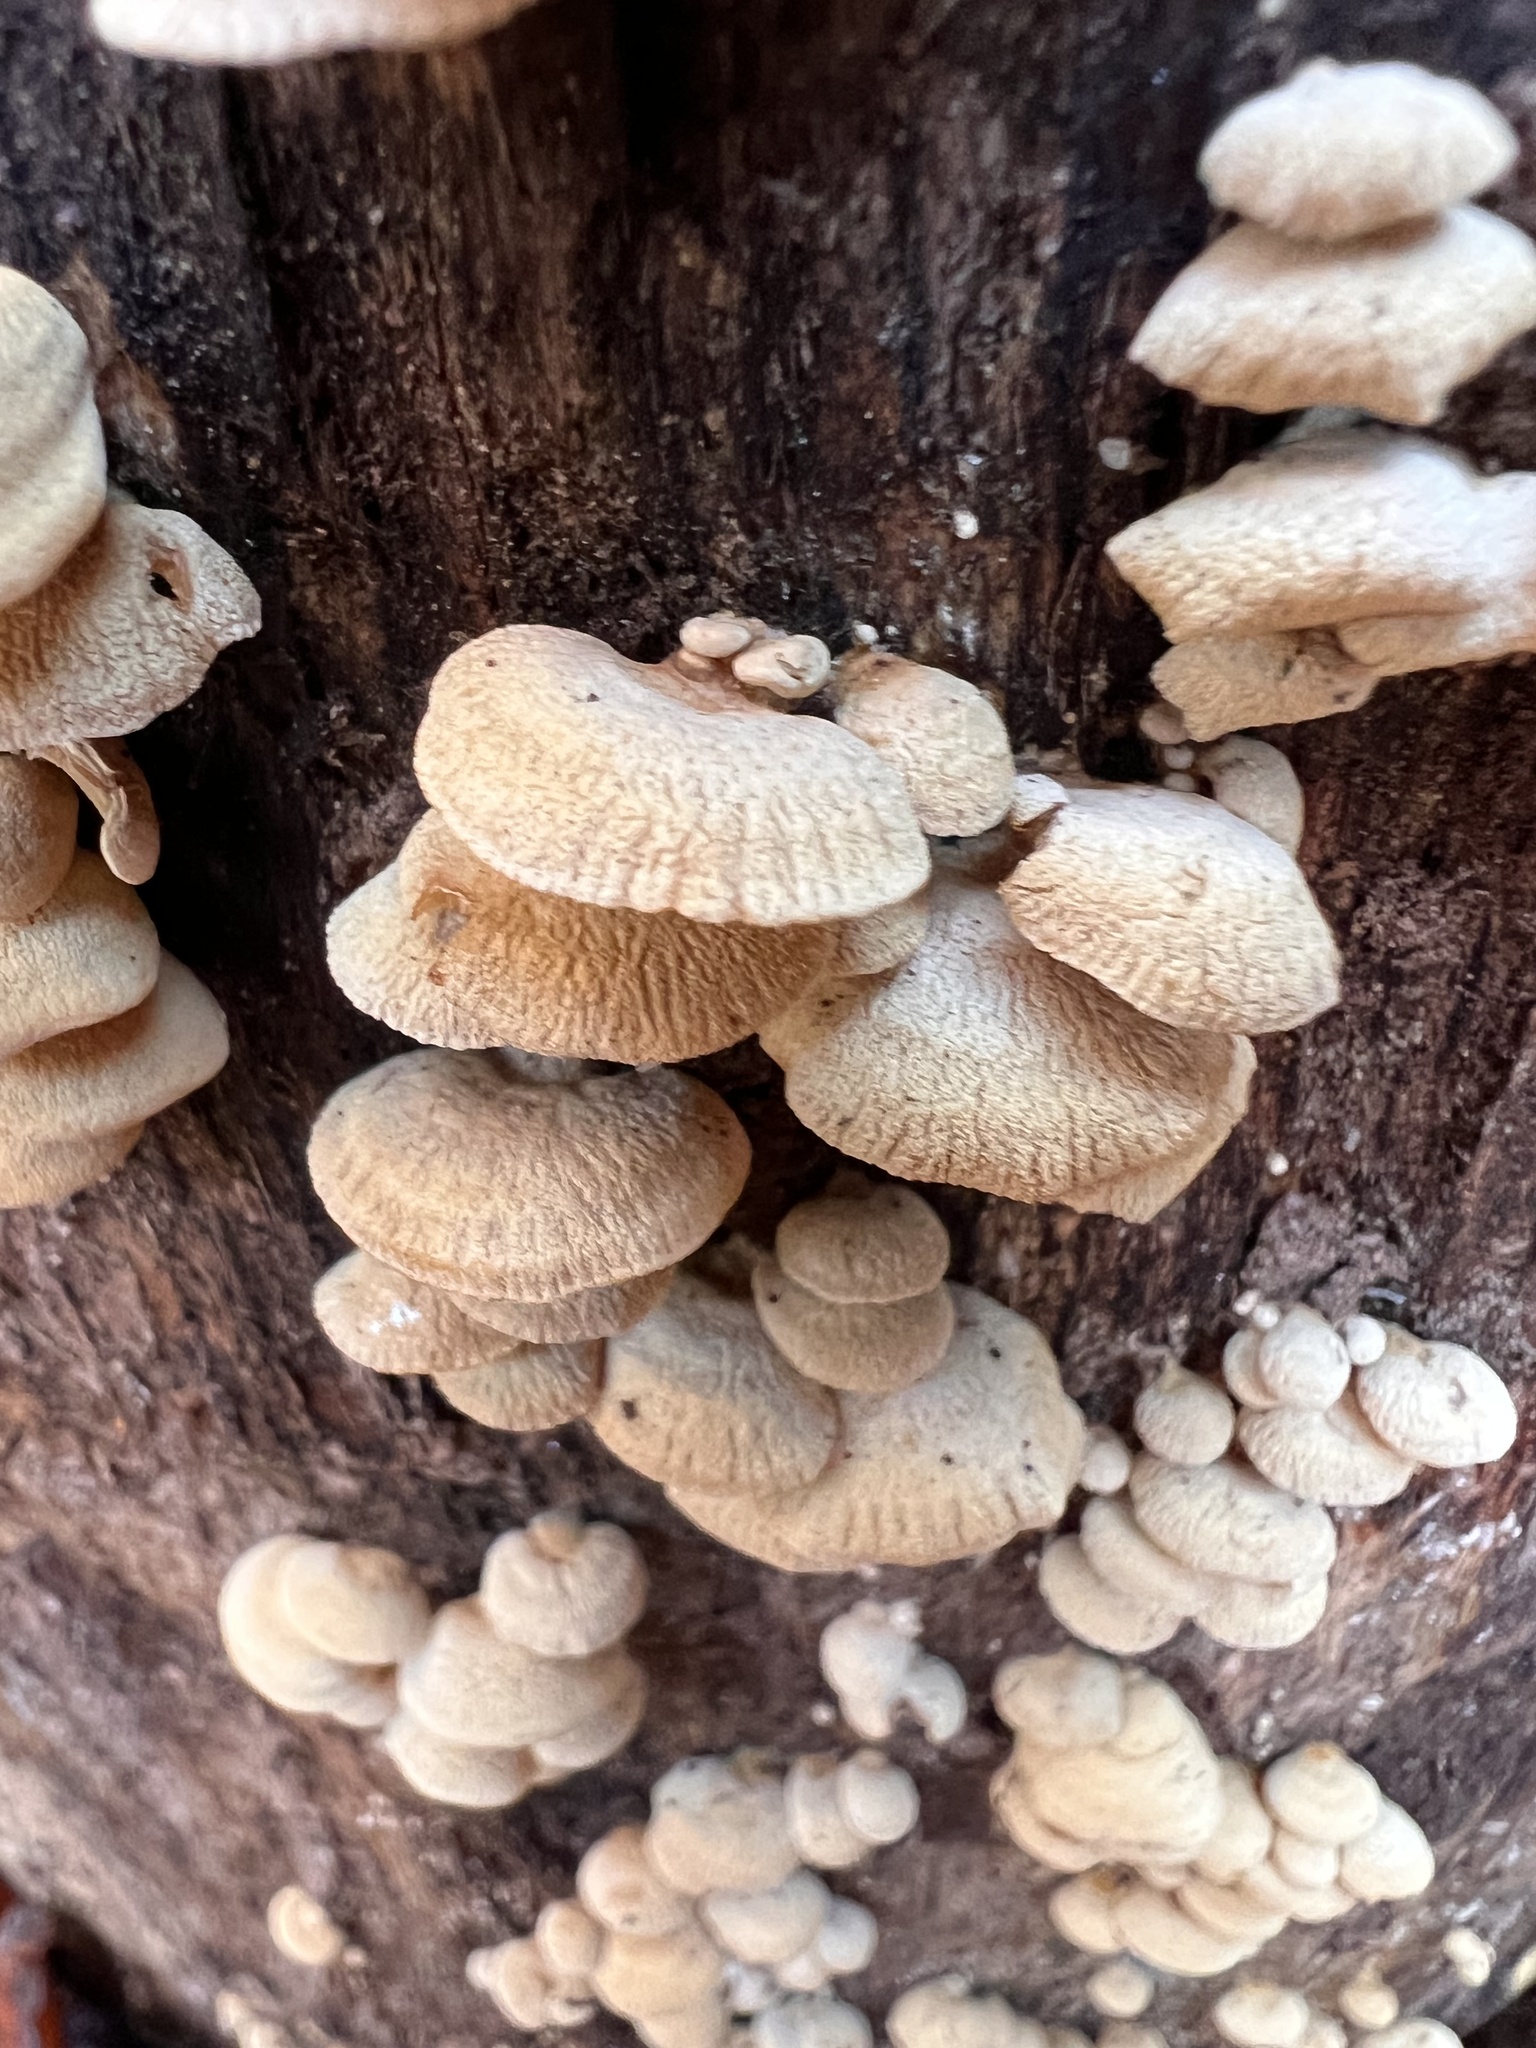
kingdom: Fungi
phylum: Basidiomycota
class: Agaricomycetes
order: Agaricales
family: Mycenaceae
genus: Panellus
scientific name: Panellus stipticus
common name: Bitter oysterling
